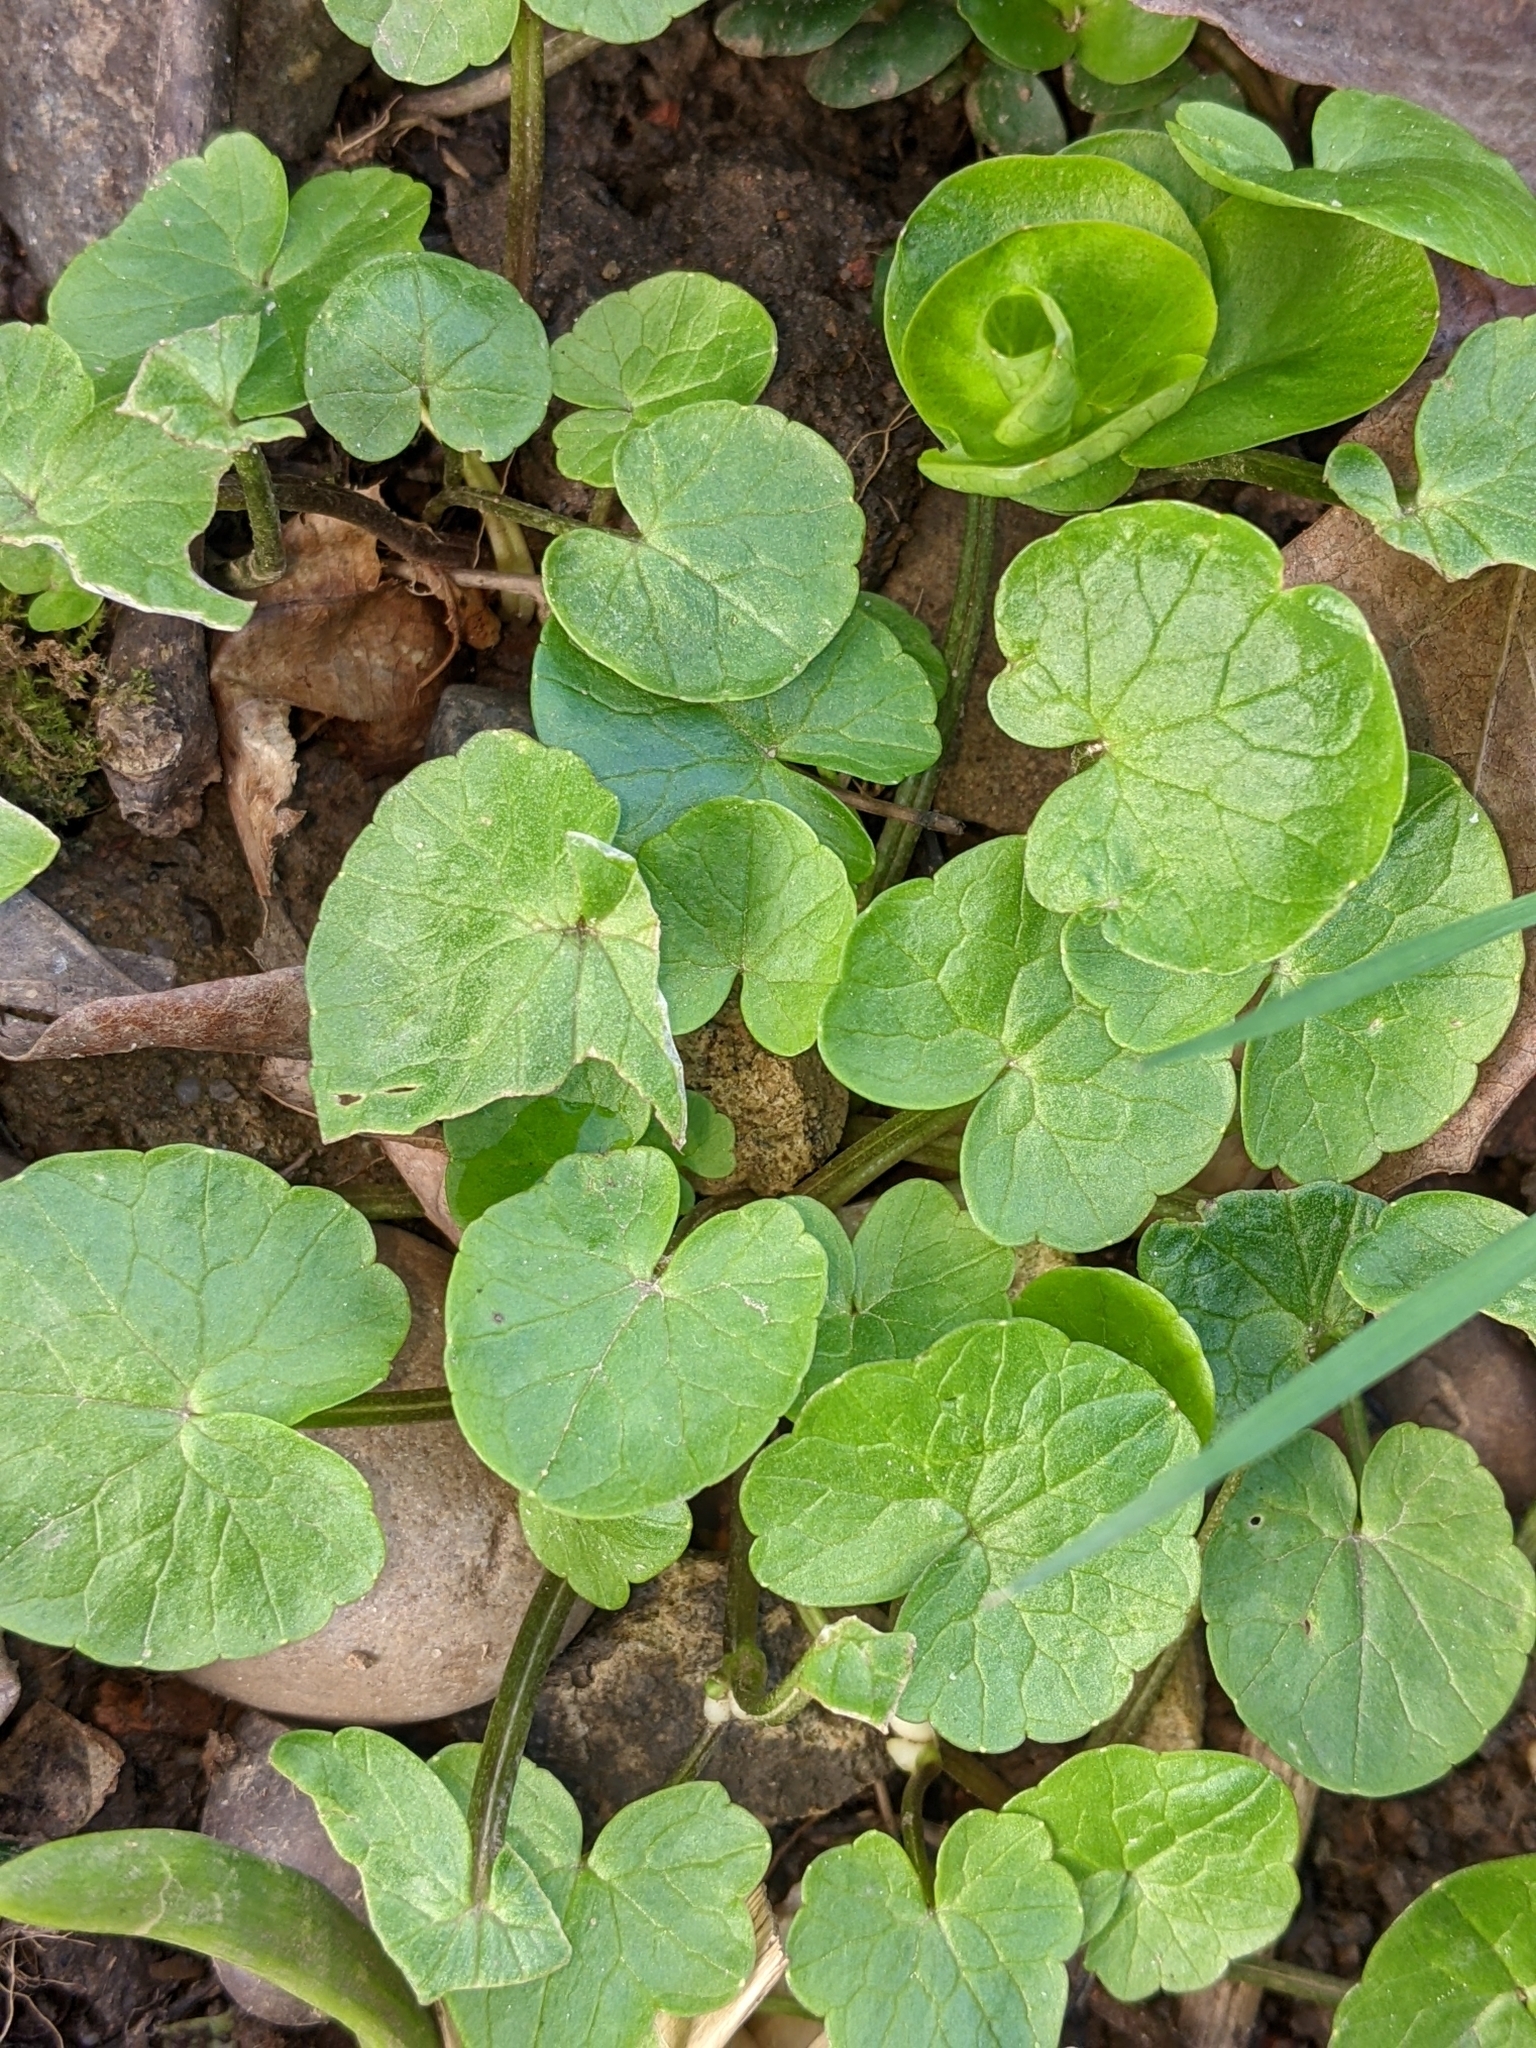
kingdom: Plantae
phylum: Tracheophyta
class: Magnoliopsida
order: Ranunculales
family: Ranunculaceae
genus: Ficaria
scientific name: Ficaria verna
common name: Lesser celandine
